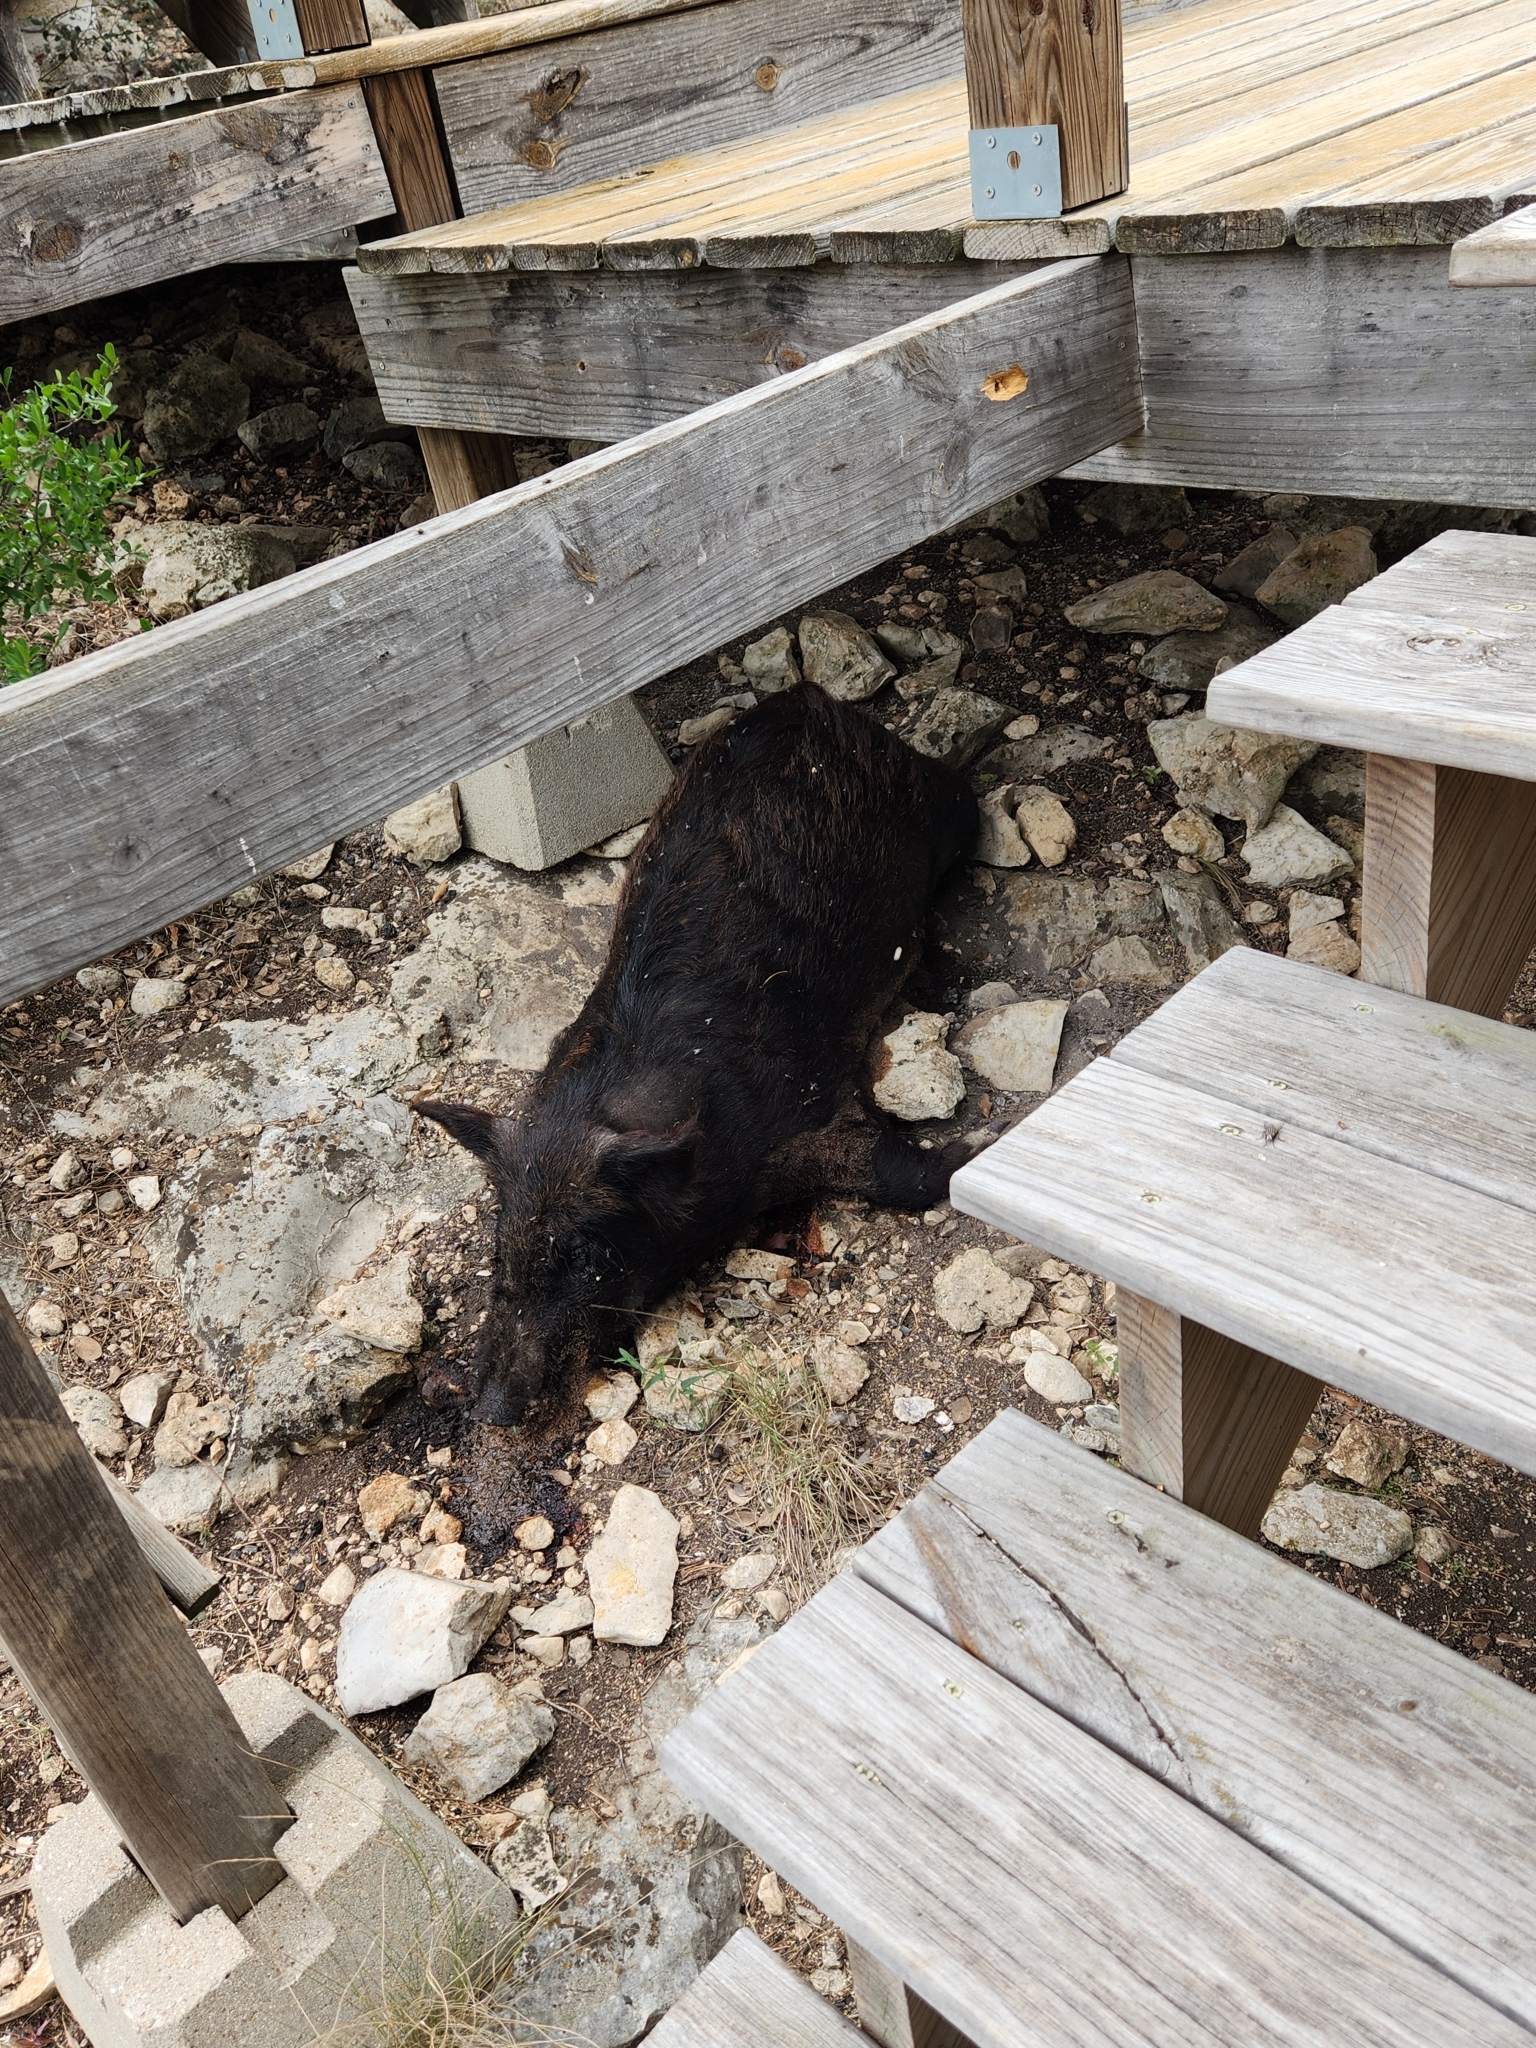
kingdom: Animalia
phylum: Chordata
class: Mammalia
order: Artiodactyla
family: Suidae
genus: Sus
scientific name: Sus scrofa
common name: Wild boar
